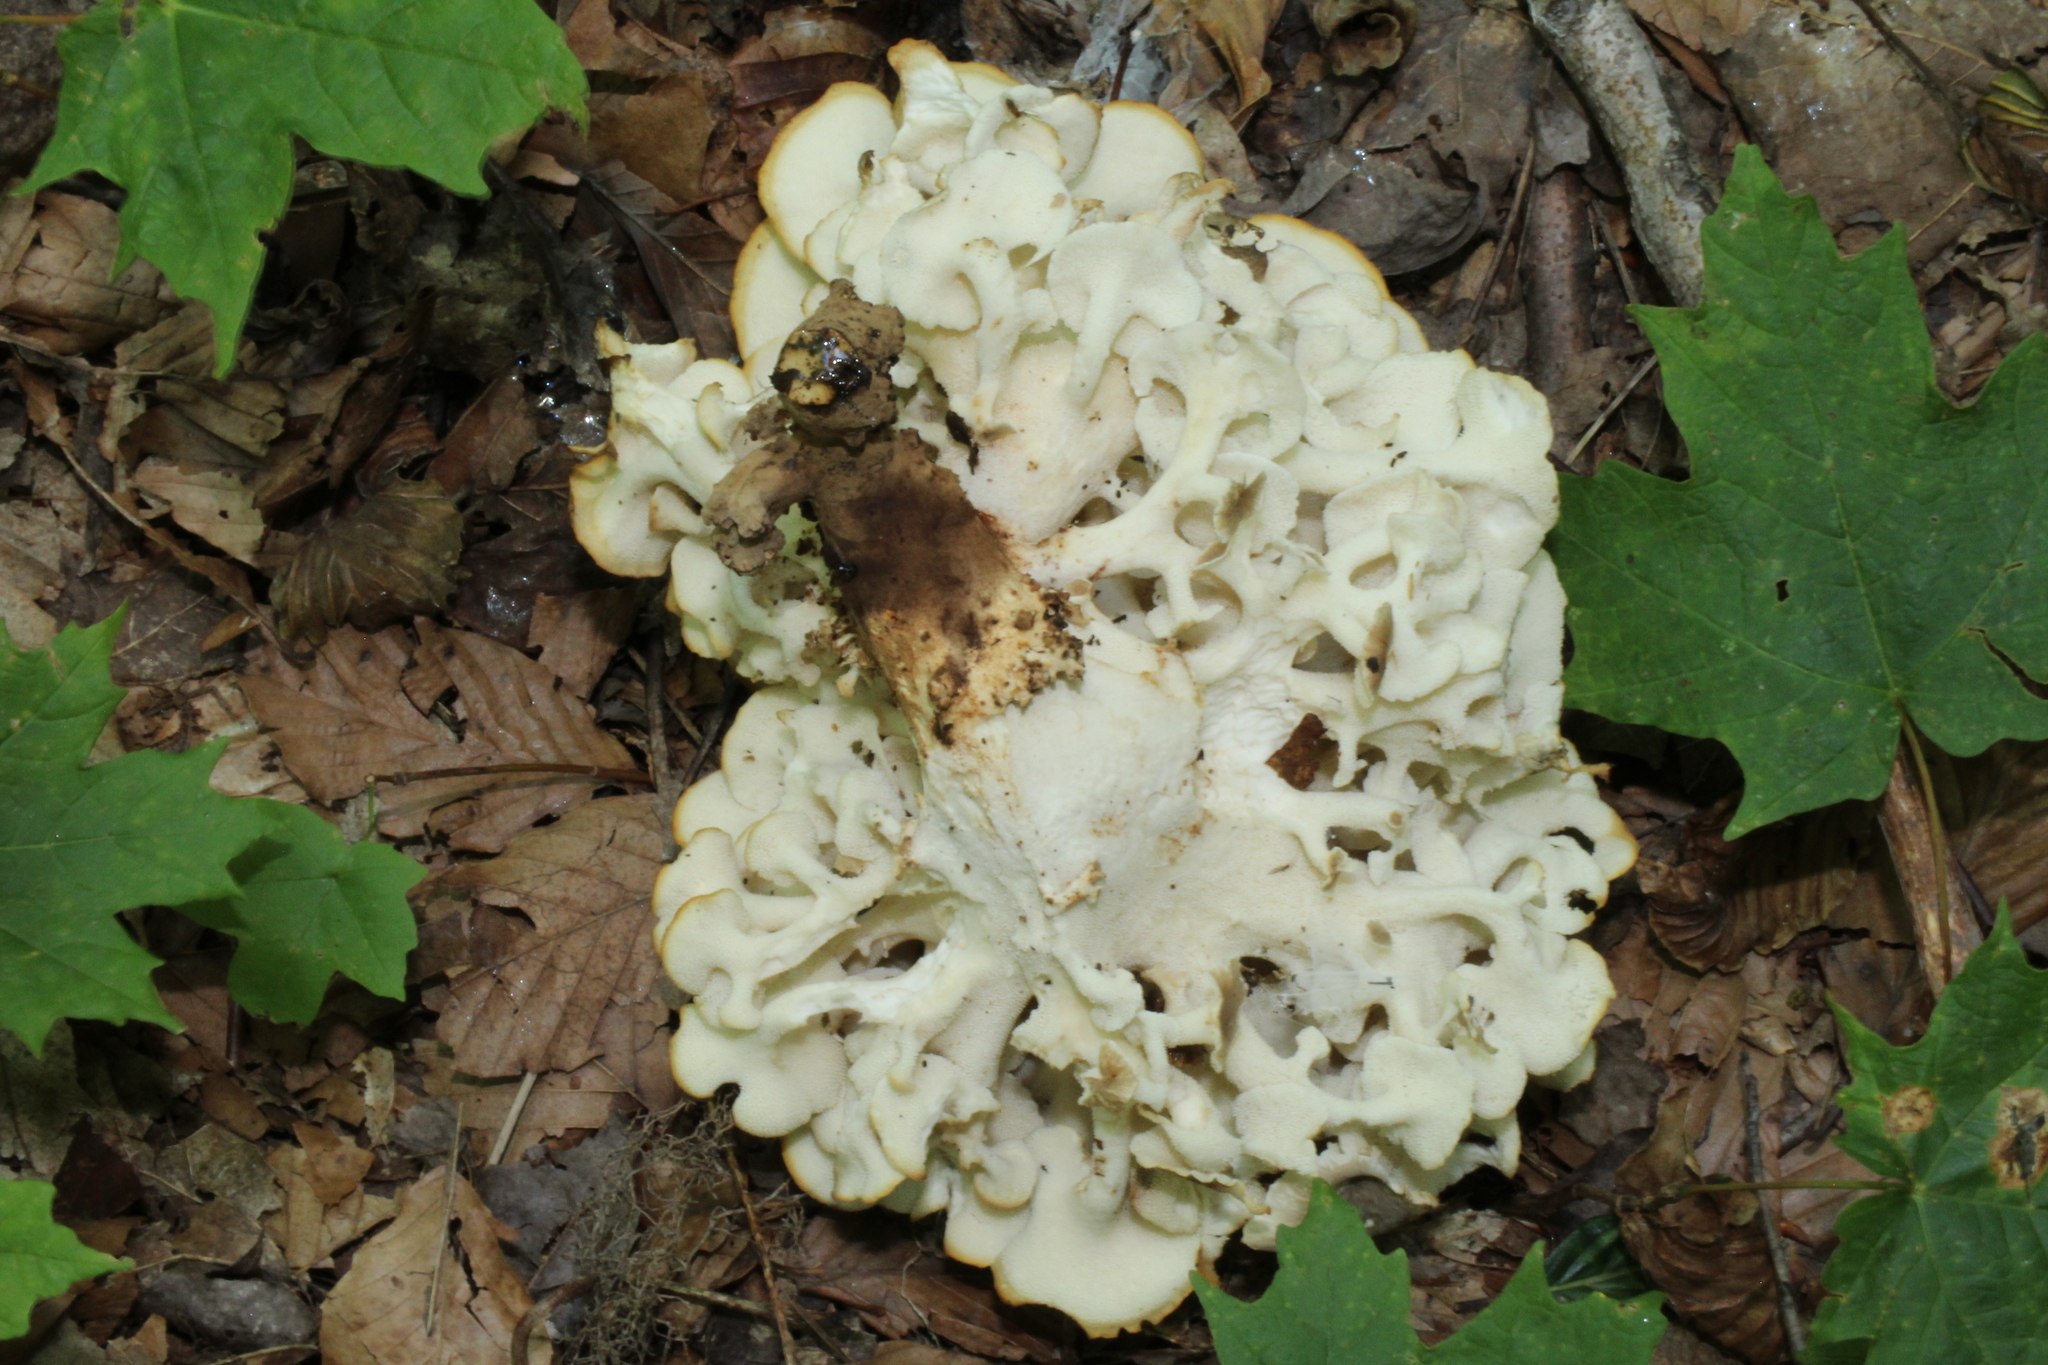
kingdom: Fungi
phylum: Basidiomycota
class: Agaricomycetes
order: Polyporales
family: Polyporaceae
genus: Polyporus
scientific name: Polyporus umbellatus
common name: Umbrella polypore
